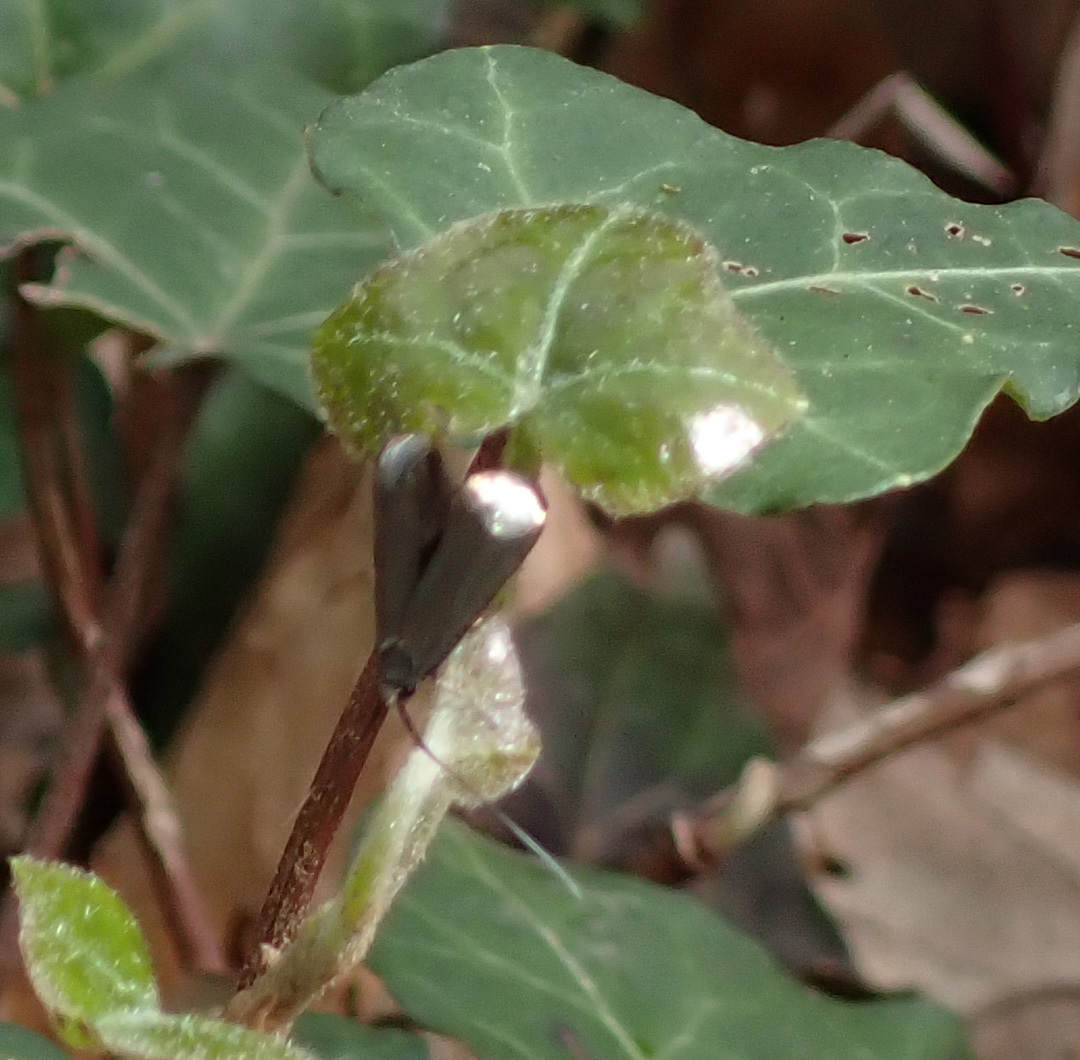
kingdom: Animalia
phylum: Arthropoda
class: Insecta
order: Lepidoptera
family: Adelidae
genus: Adela
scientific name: Adela viridella
